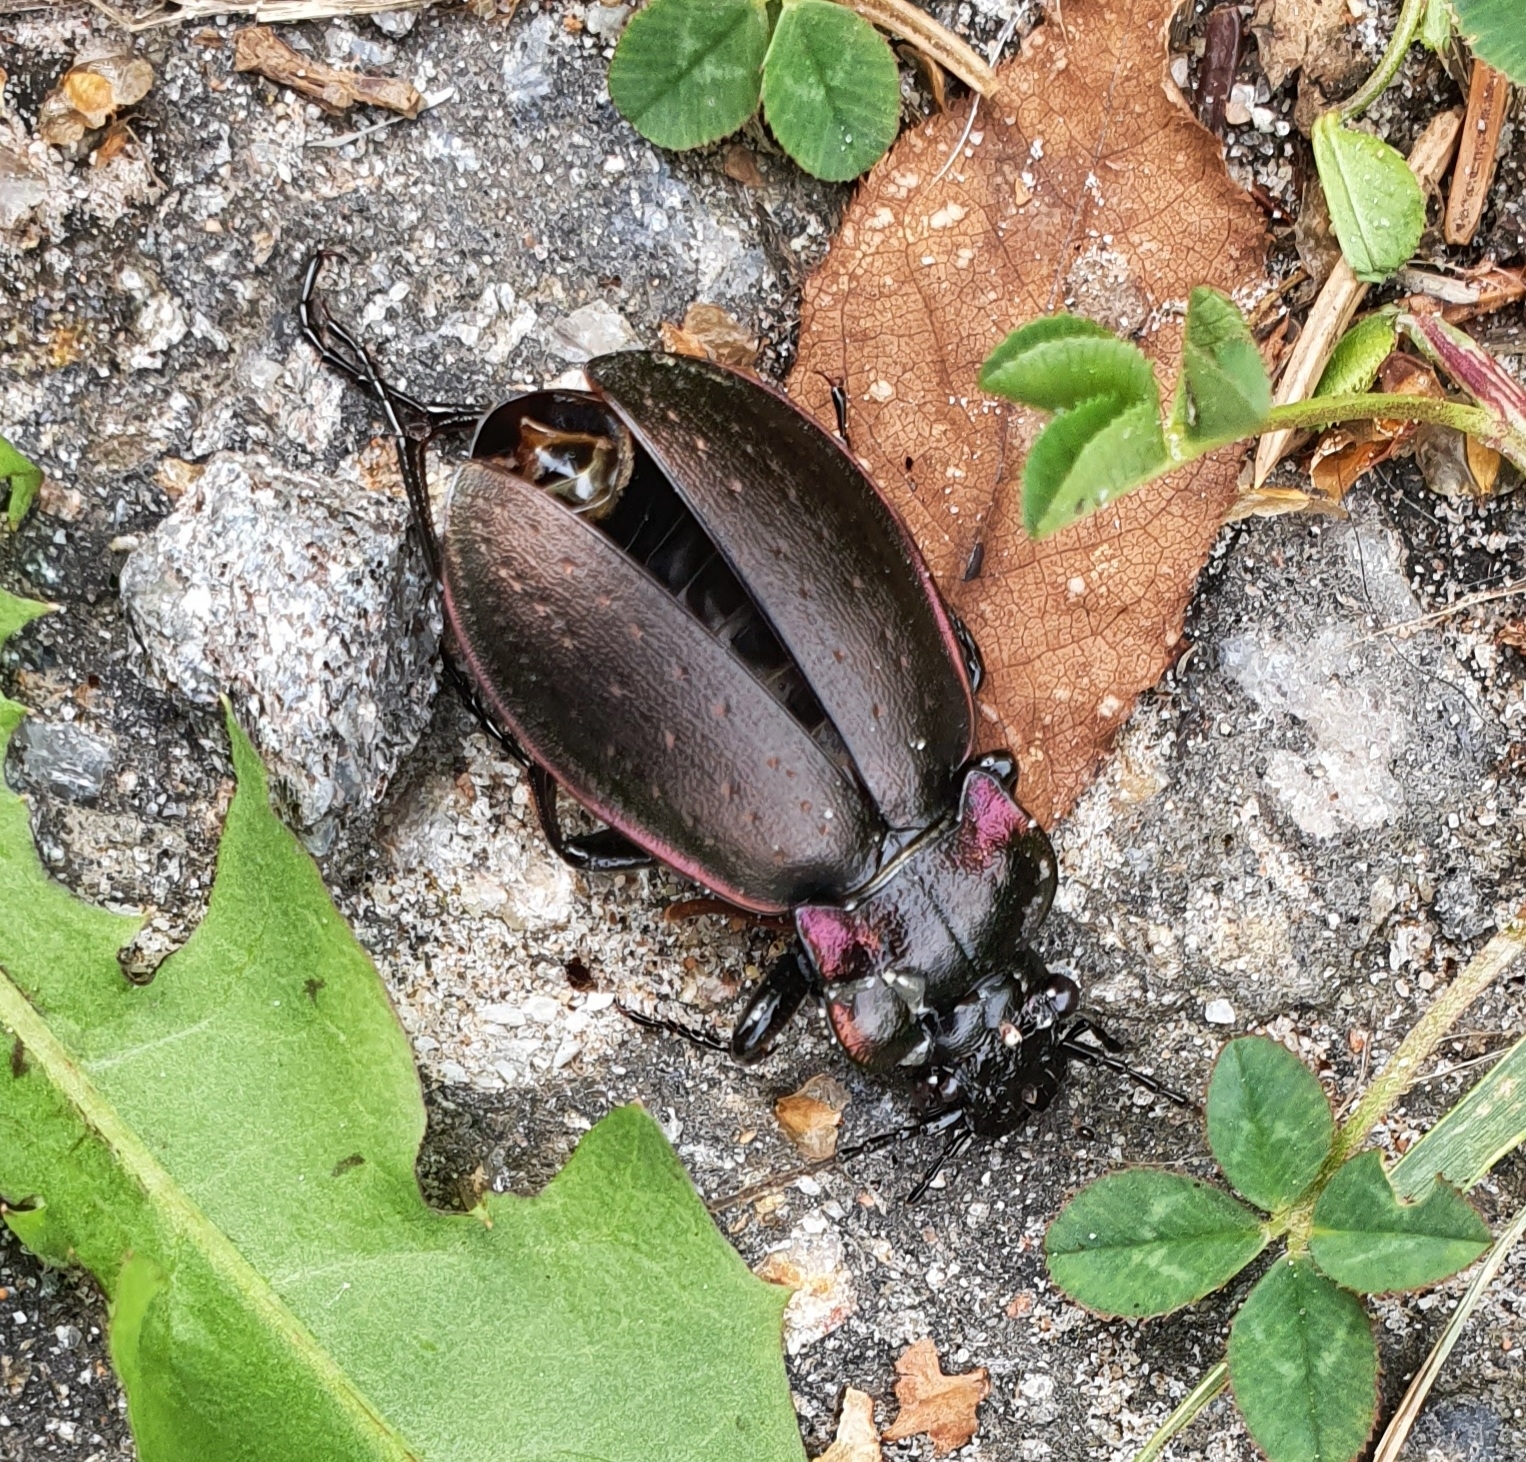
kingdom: Animalia
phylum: Arthropoda
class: Insecta
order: Coleoptera
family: Carabidae
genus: Carabus
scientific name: Carabus nemoralis
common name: European ground beetle
